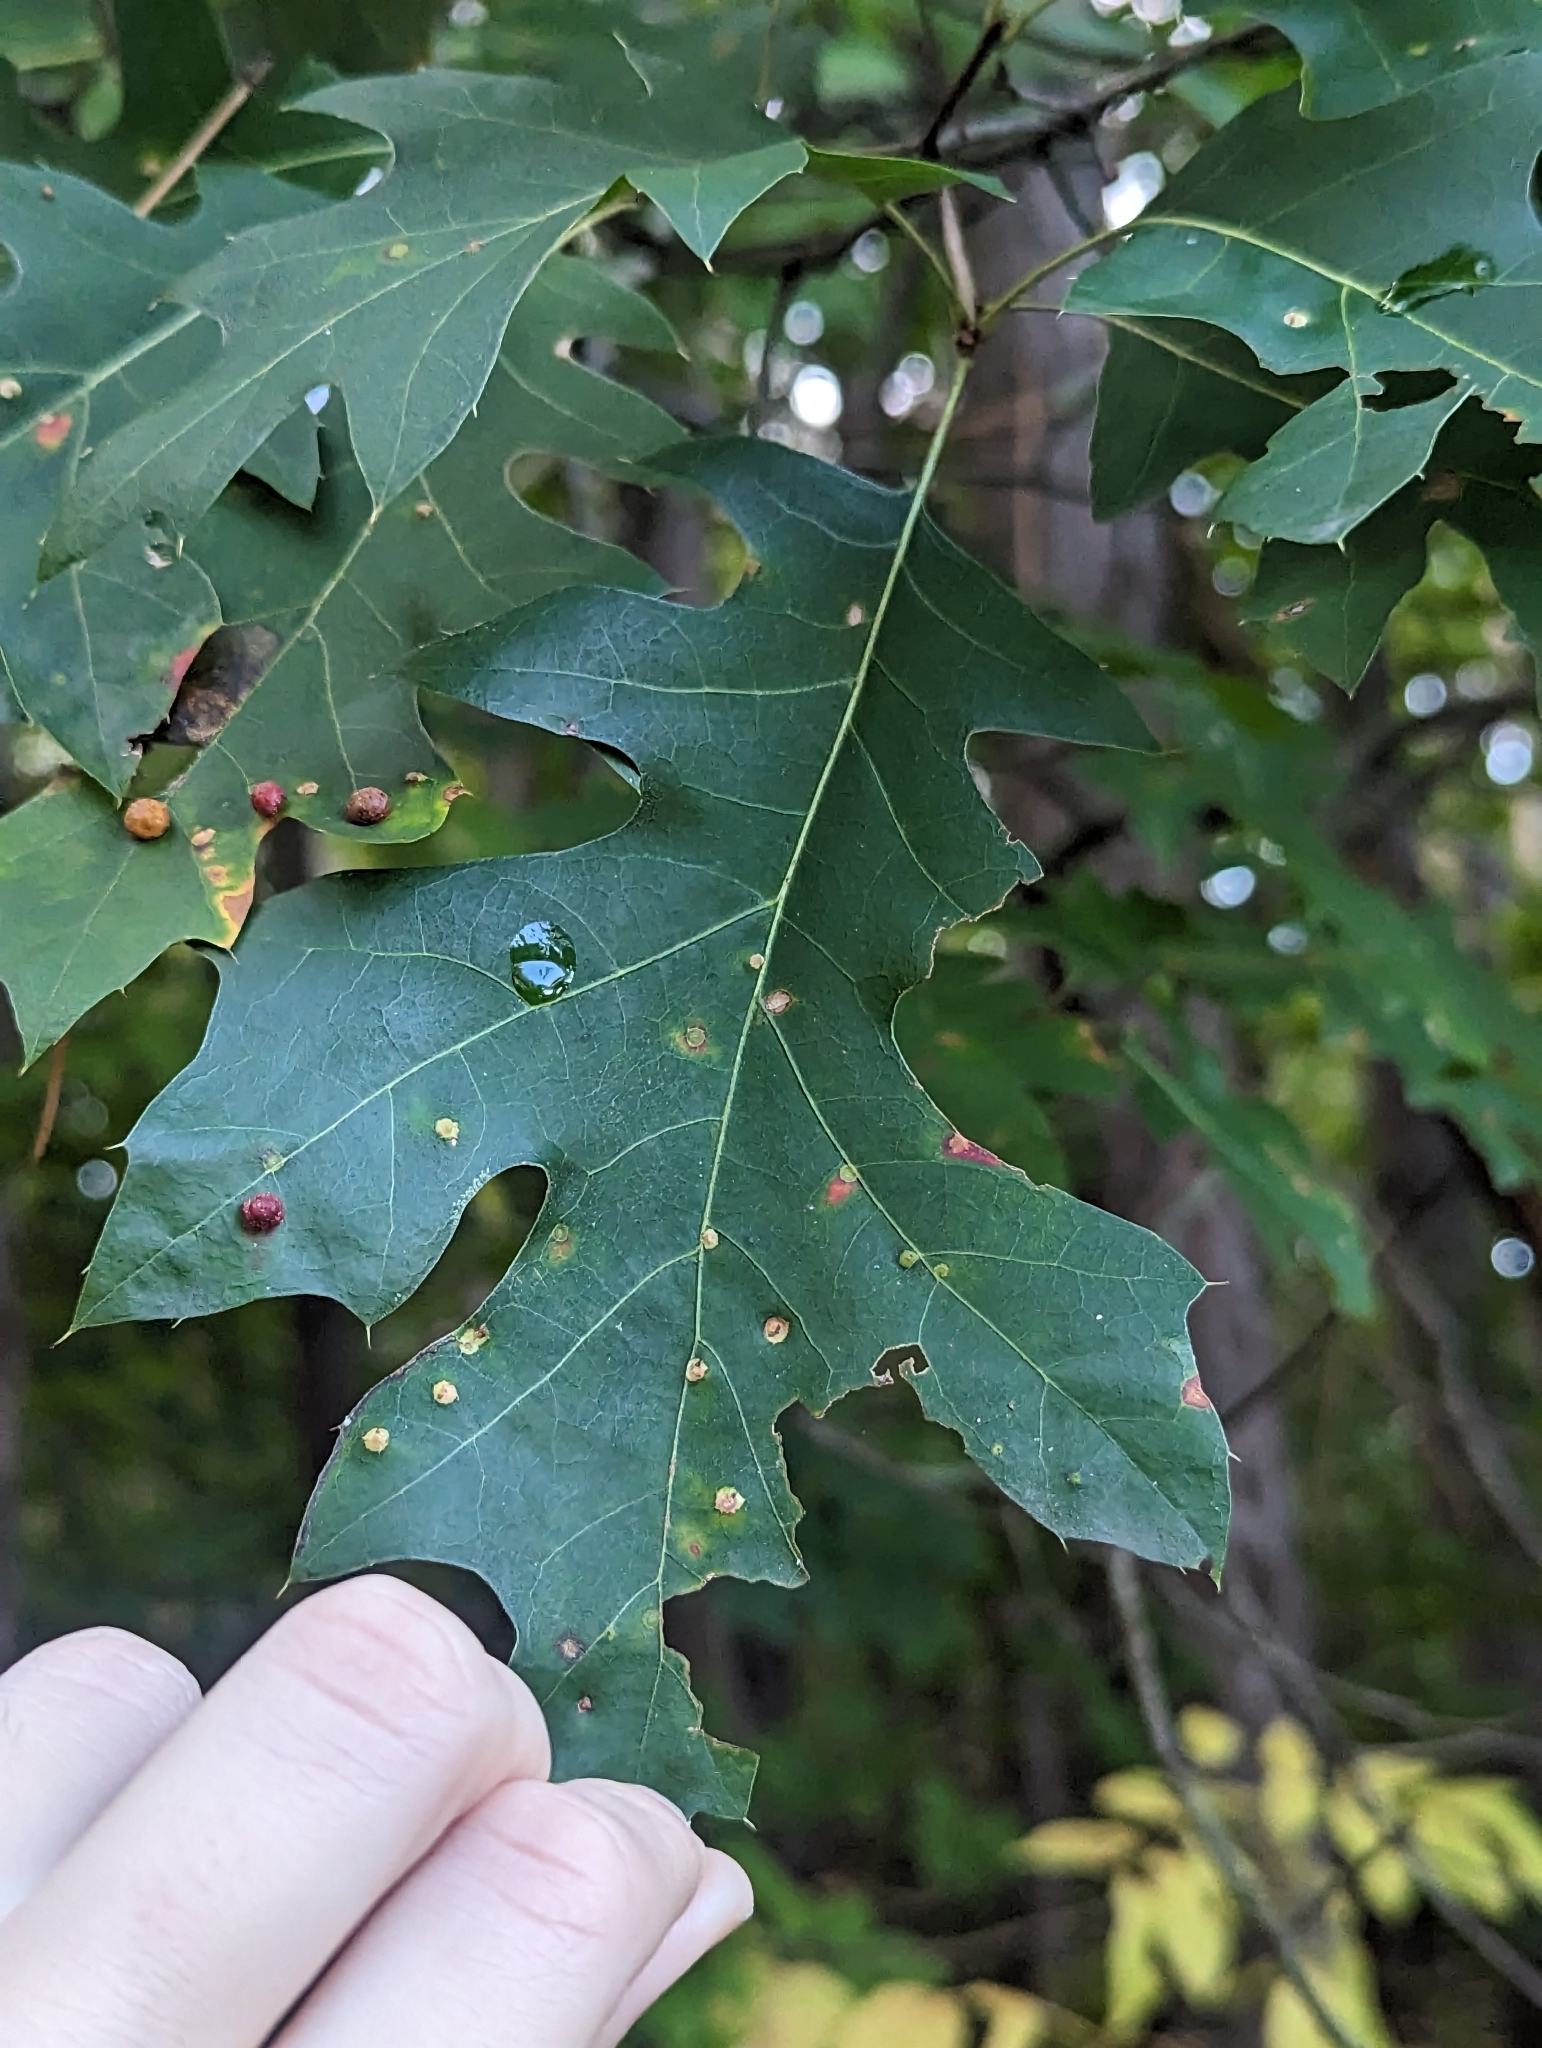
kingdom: Animalia
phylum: Arthropoda
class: Insecta
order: Diptera
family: Cecidomyiidae
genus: Polystepha
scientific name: Polystepha globosa
